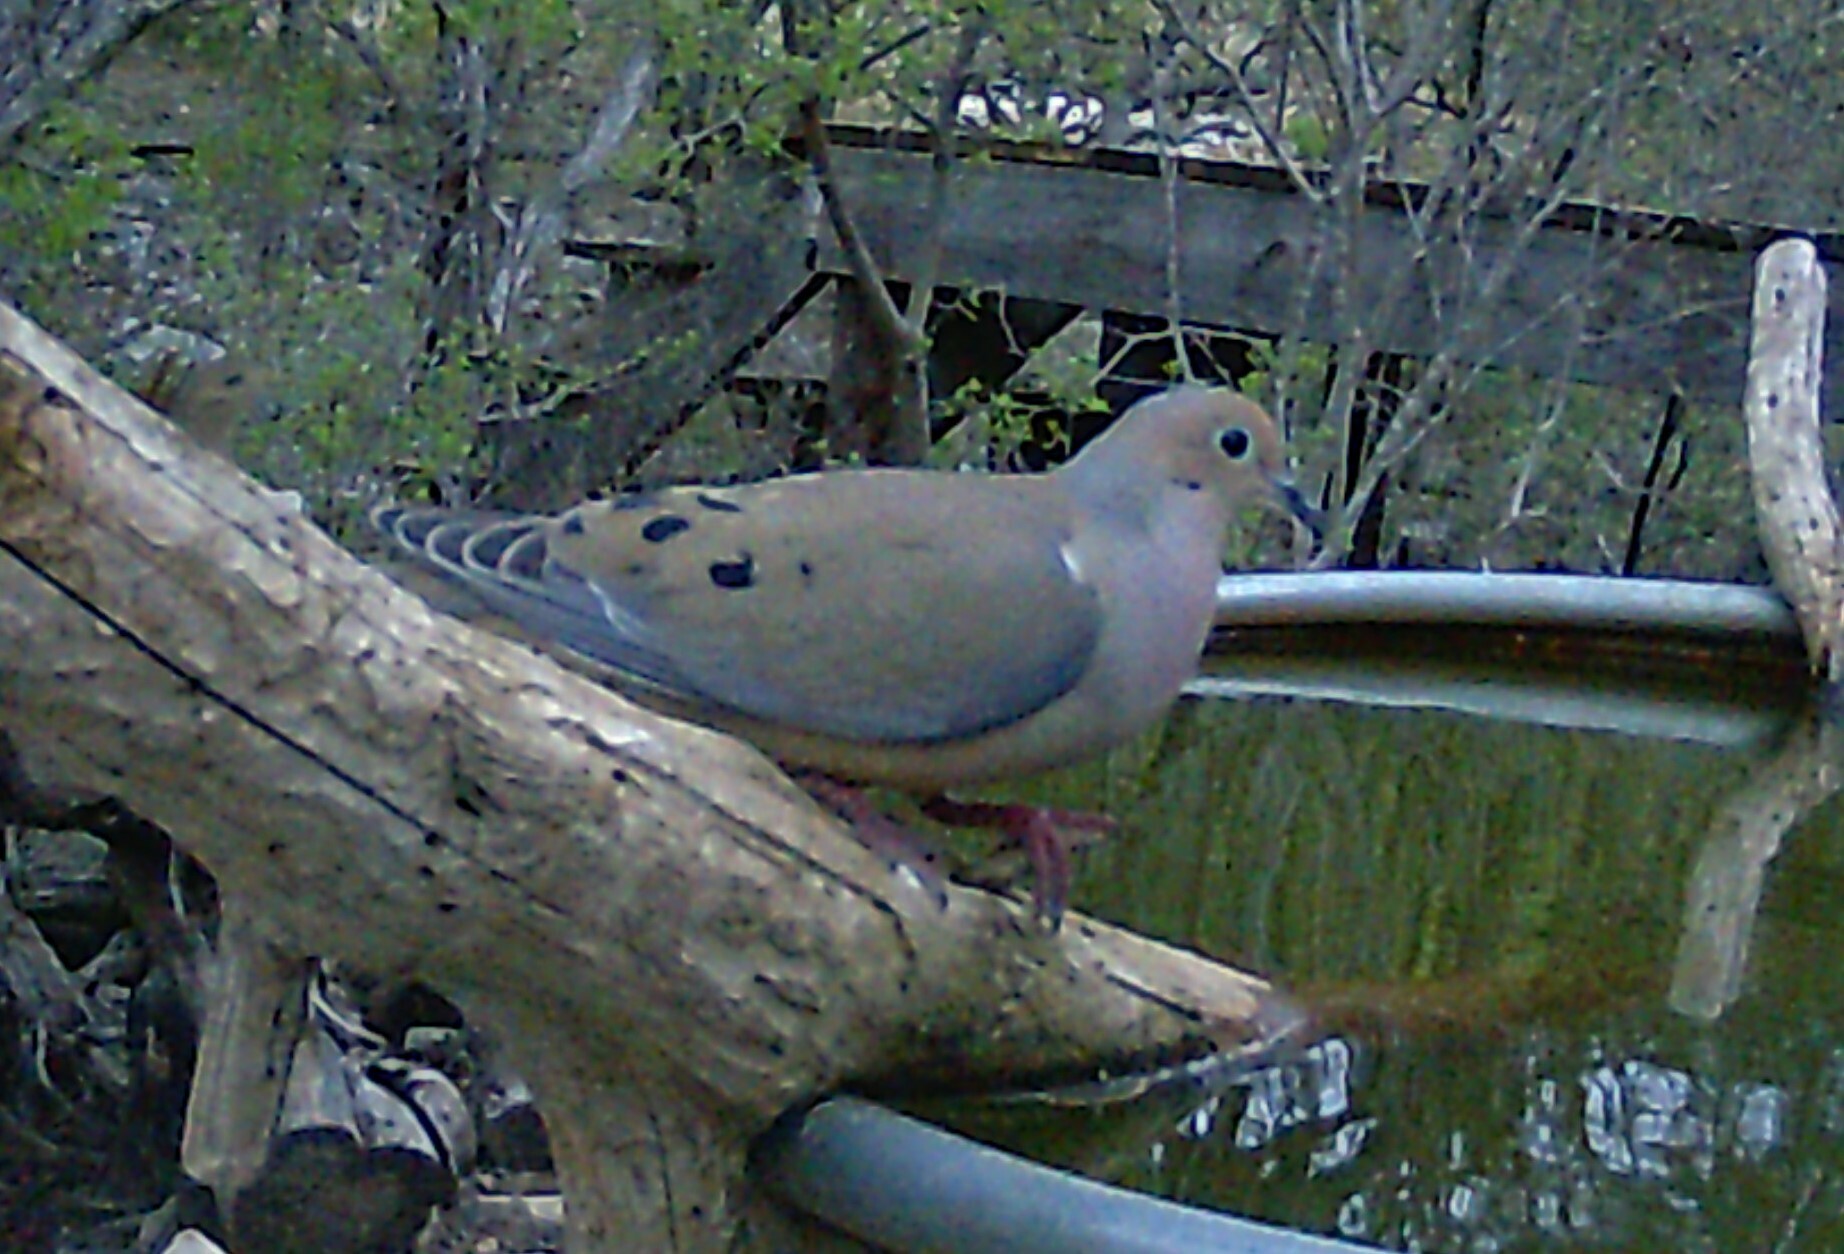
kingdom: Animalia
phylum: Chordata
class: Aves
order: Columbiformes
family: Columbidae
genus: Zenaida
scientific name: Zenaida macroura
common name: Mourning dove
